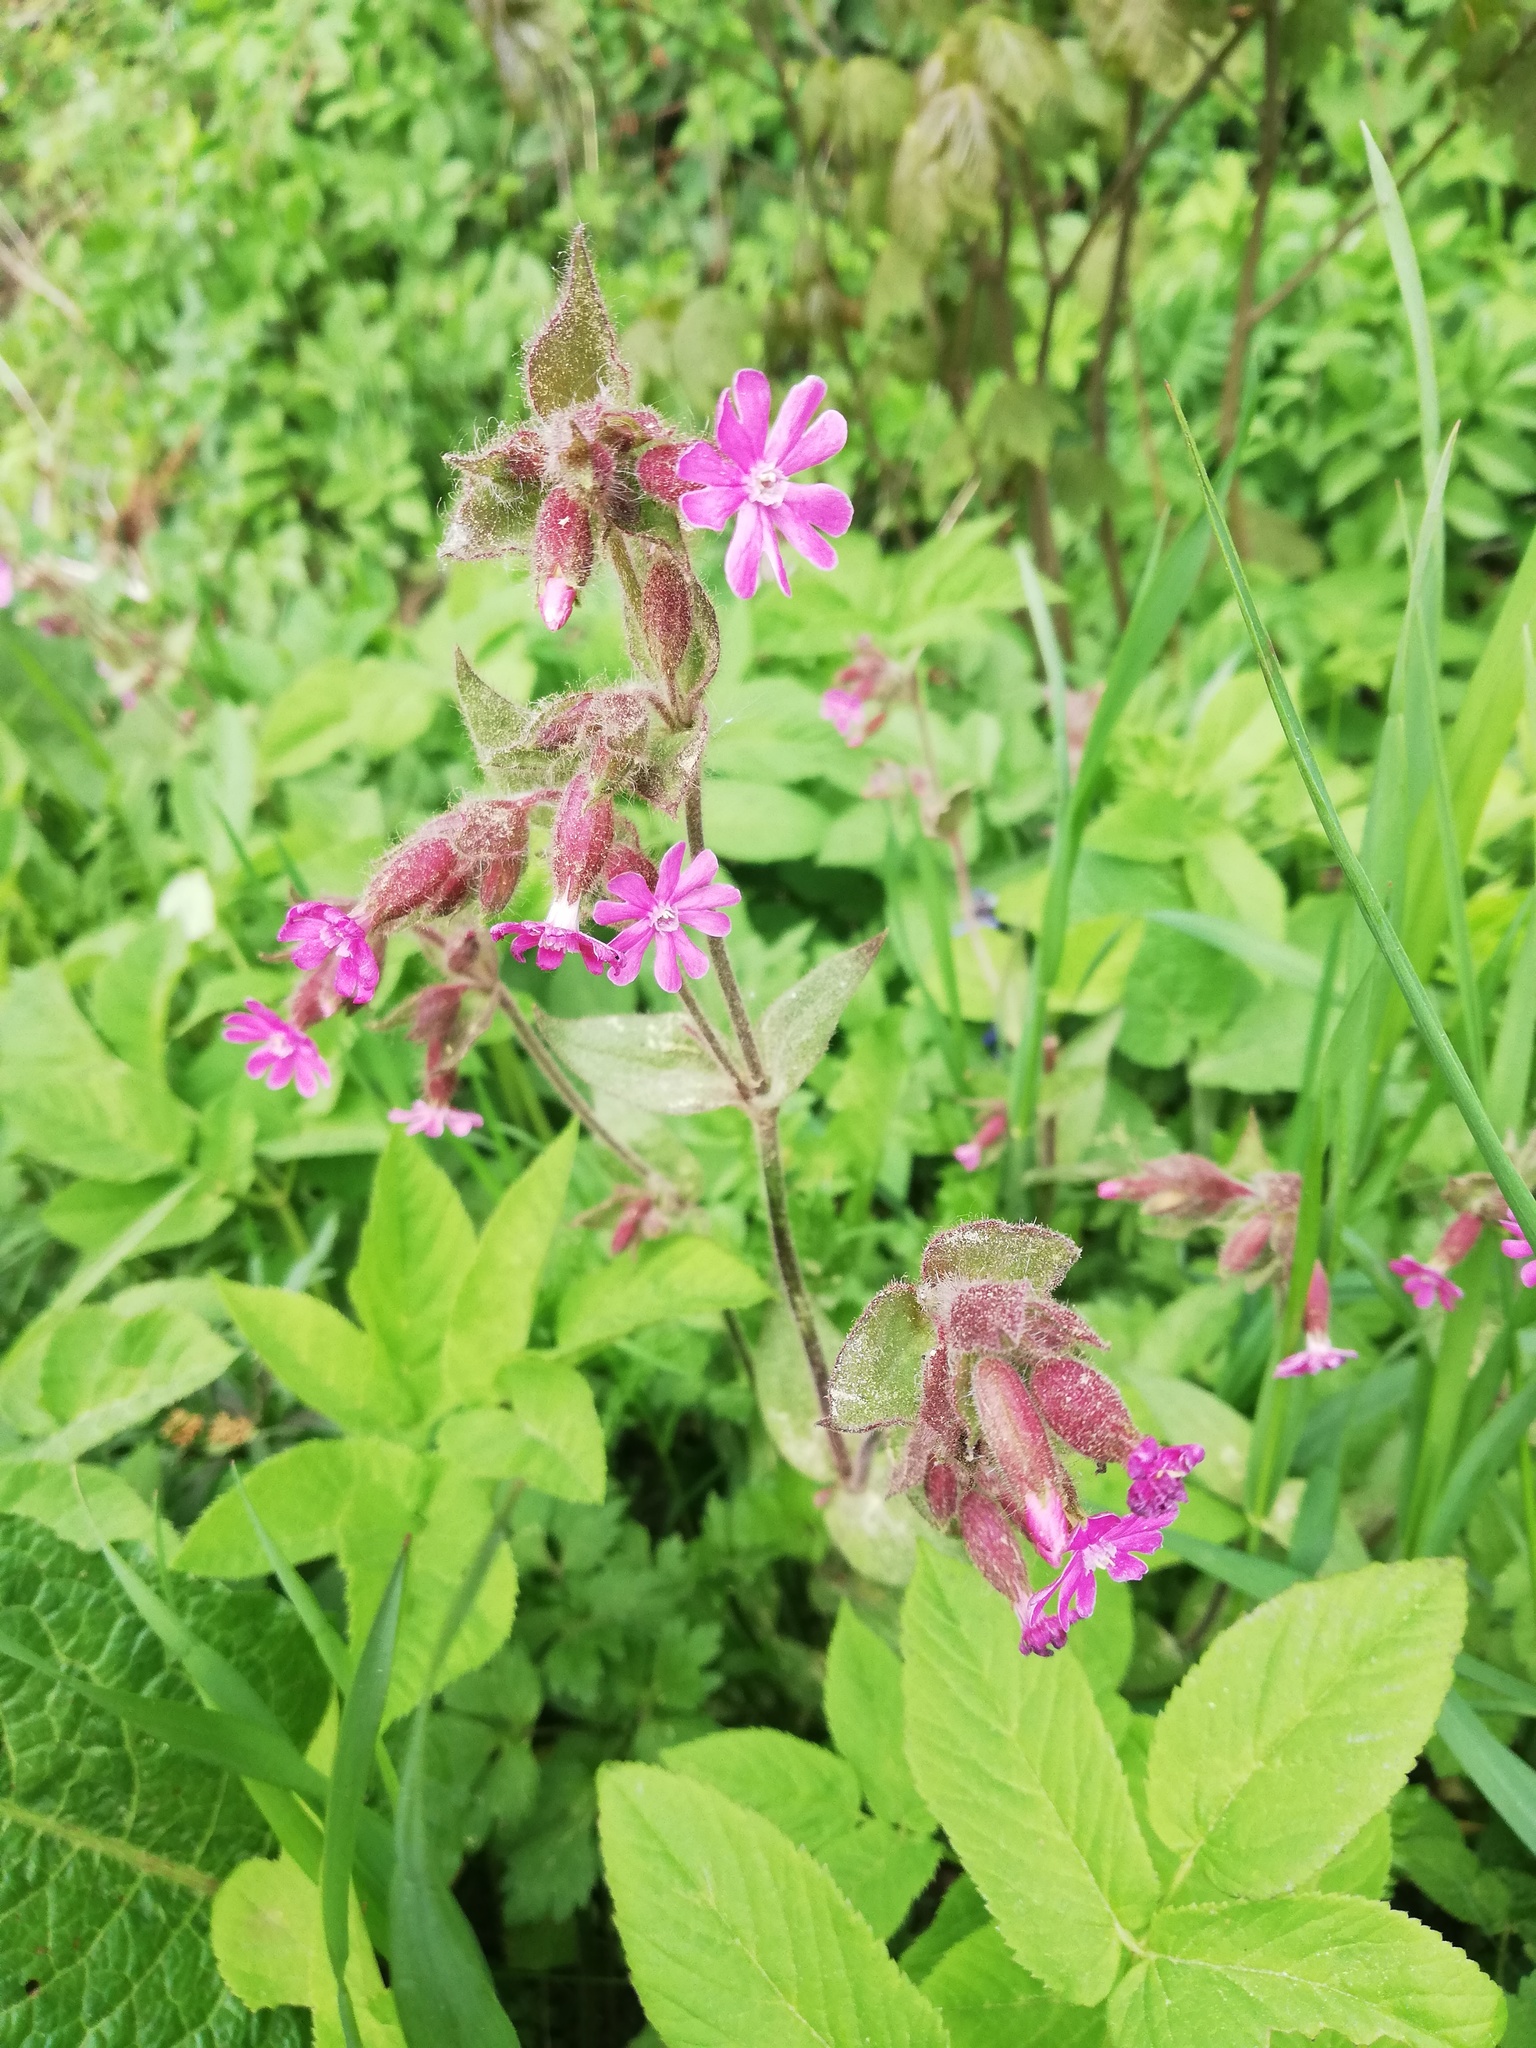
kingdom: Plantae
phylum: Tracheophyta
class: Magnoliopsida
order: Caryophyllales
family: Caryophyllaceae
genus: Silene
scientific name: Silene dioica
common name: Red campion
